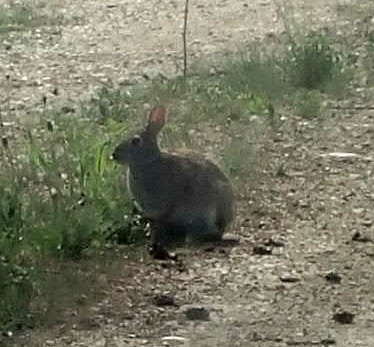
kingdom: Animalia
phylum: Chordata
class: Mammalia
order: Lagomorpha
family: Leporidae
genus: Sylvilagus
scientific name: Sylvilagus floridanus
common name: Eastern cottontail
